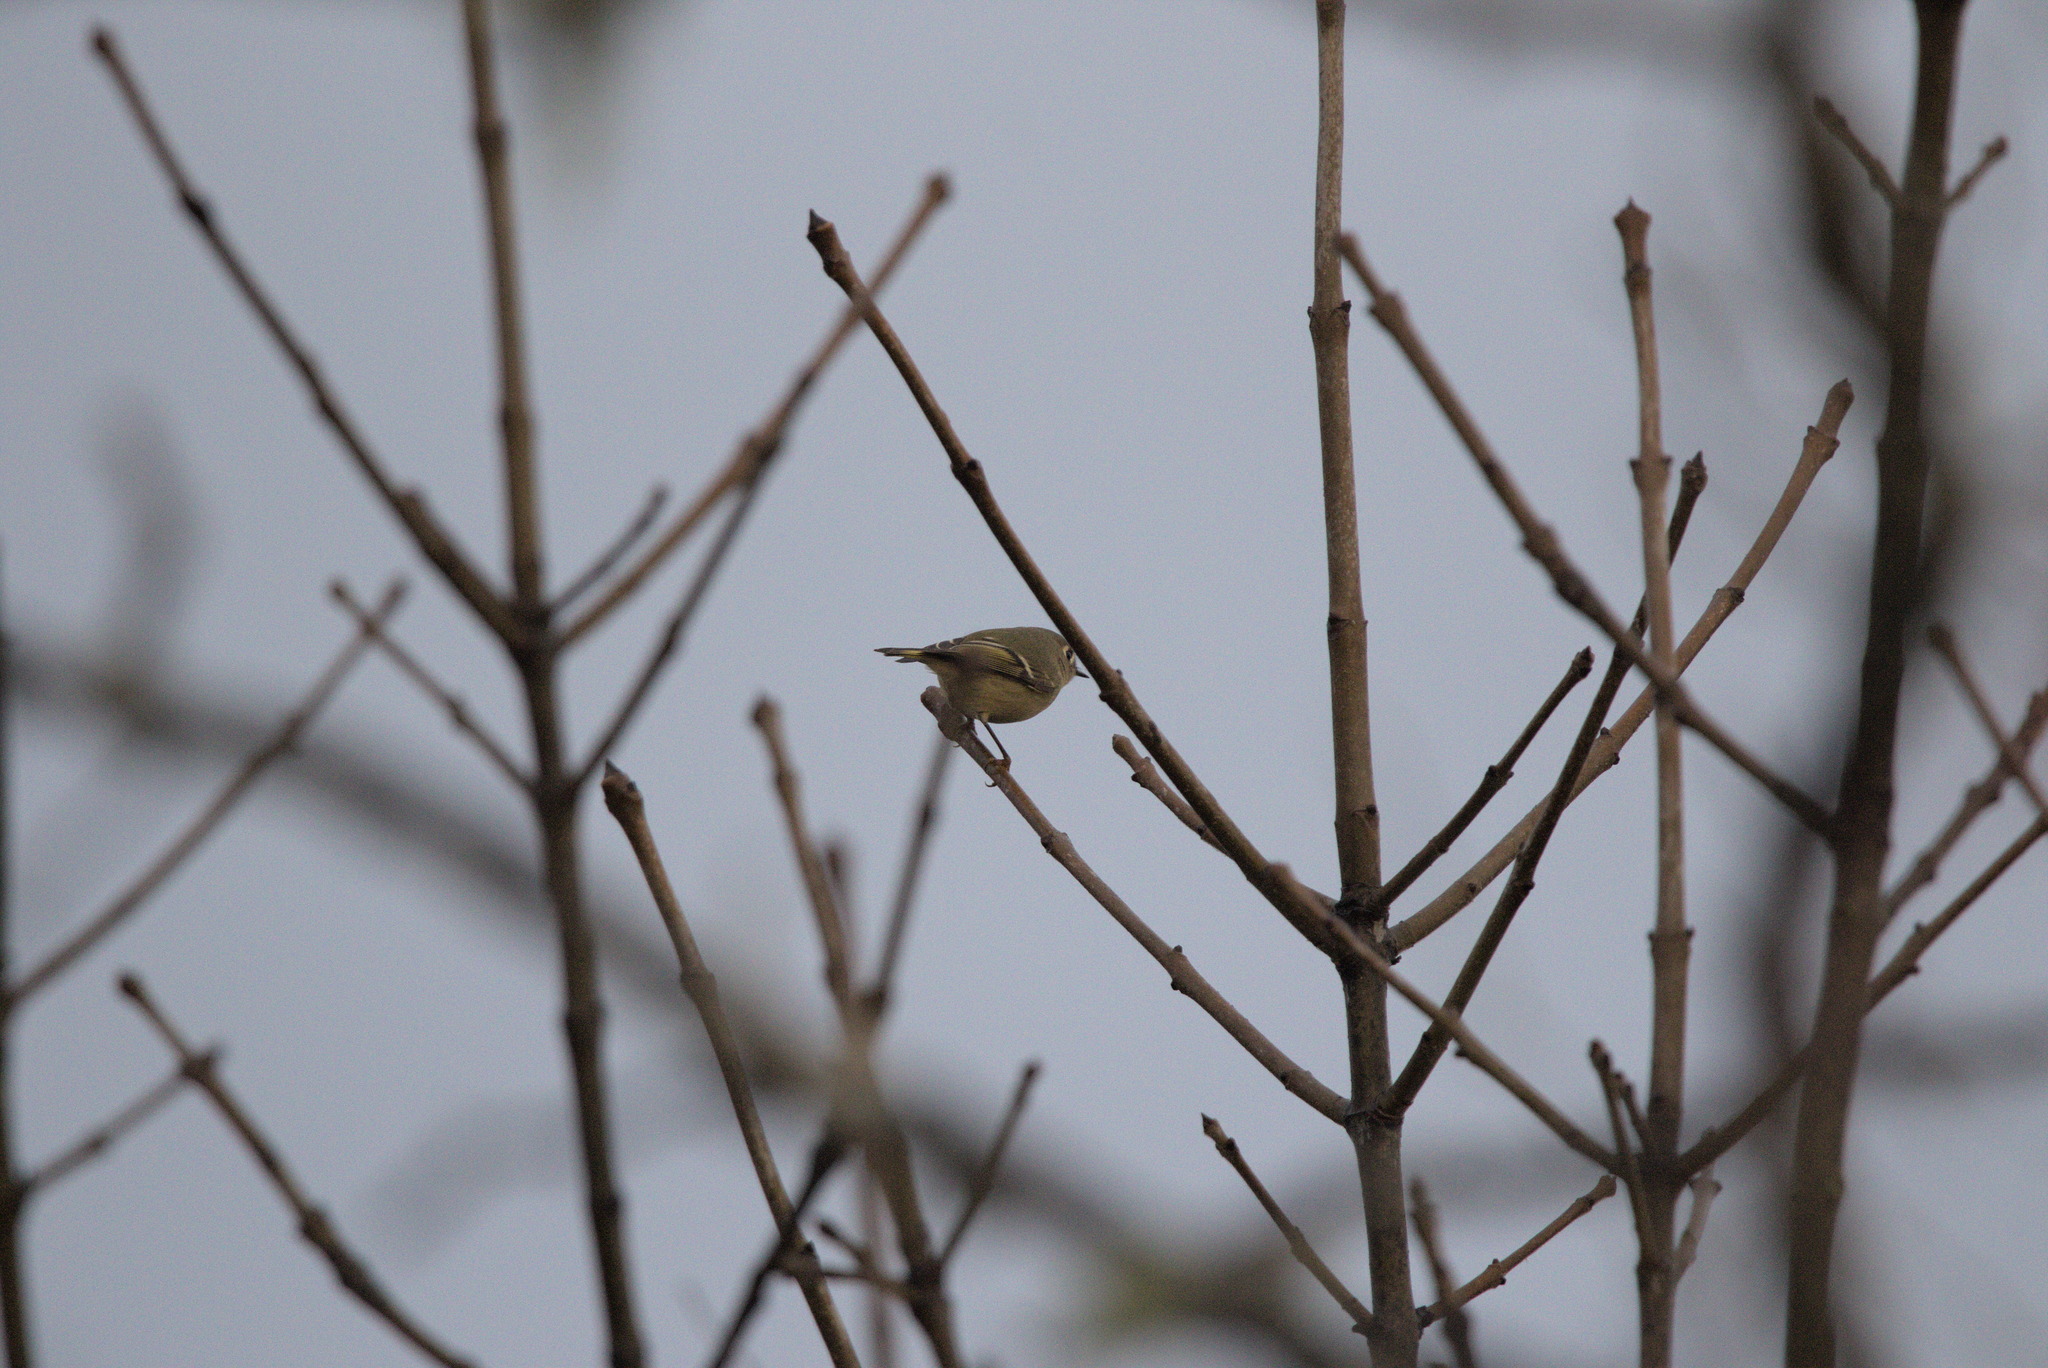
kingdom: Animalia
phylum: Chordata
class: Aves
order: Passeriformes
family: Regulidae
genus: Regulus
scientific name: Regulus calendula
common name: Ruby-crowned kinglet
